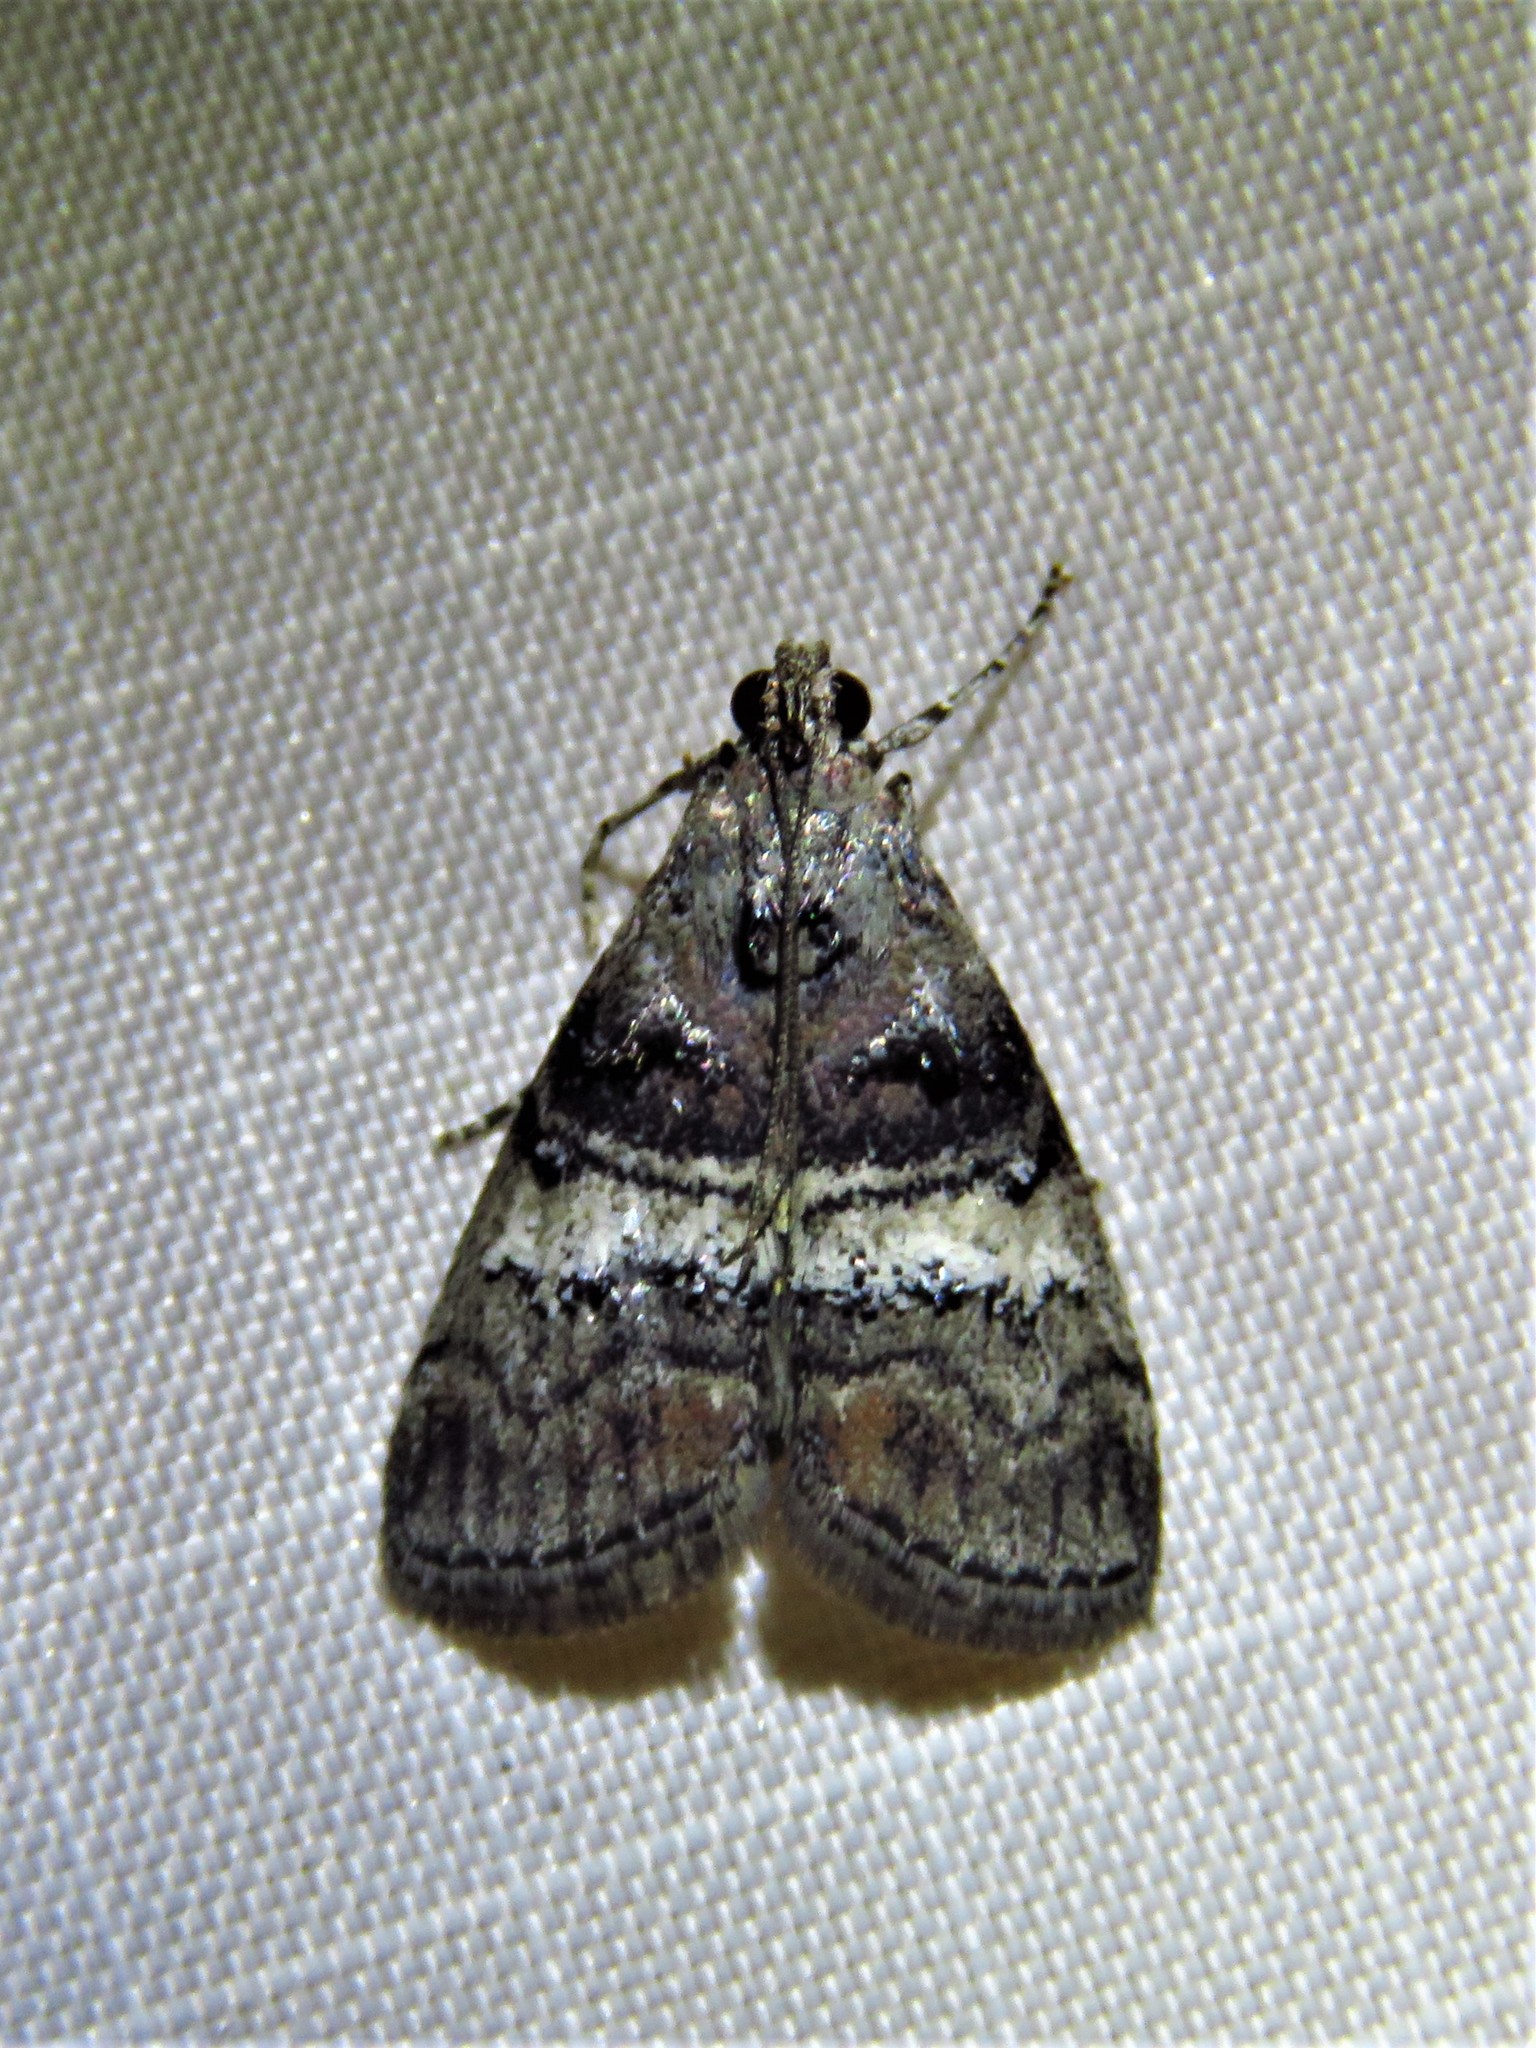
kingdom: Animalia
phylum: Arthropoda
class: Insecta
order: Lepidoptera
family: Pyralidae
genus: Pococera
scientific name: Pococera asperatella
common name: Maple webworm moth
